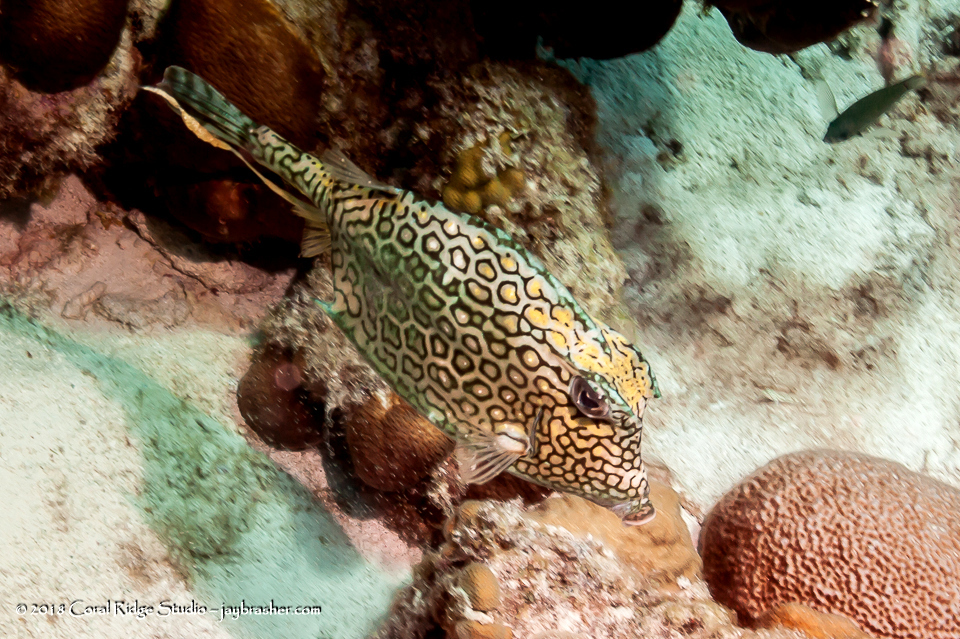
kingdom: Animalia
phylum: Chordata
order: Tetraodontiformes
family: Ostraciidae
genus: Acanthostracion
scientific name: Acanthostracion polygonius
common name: Honeycomb cowfish
